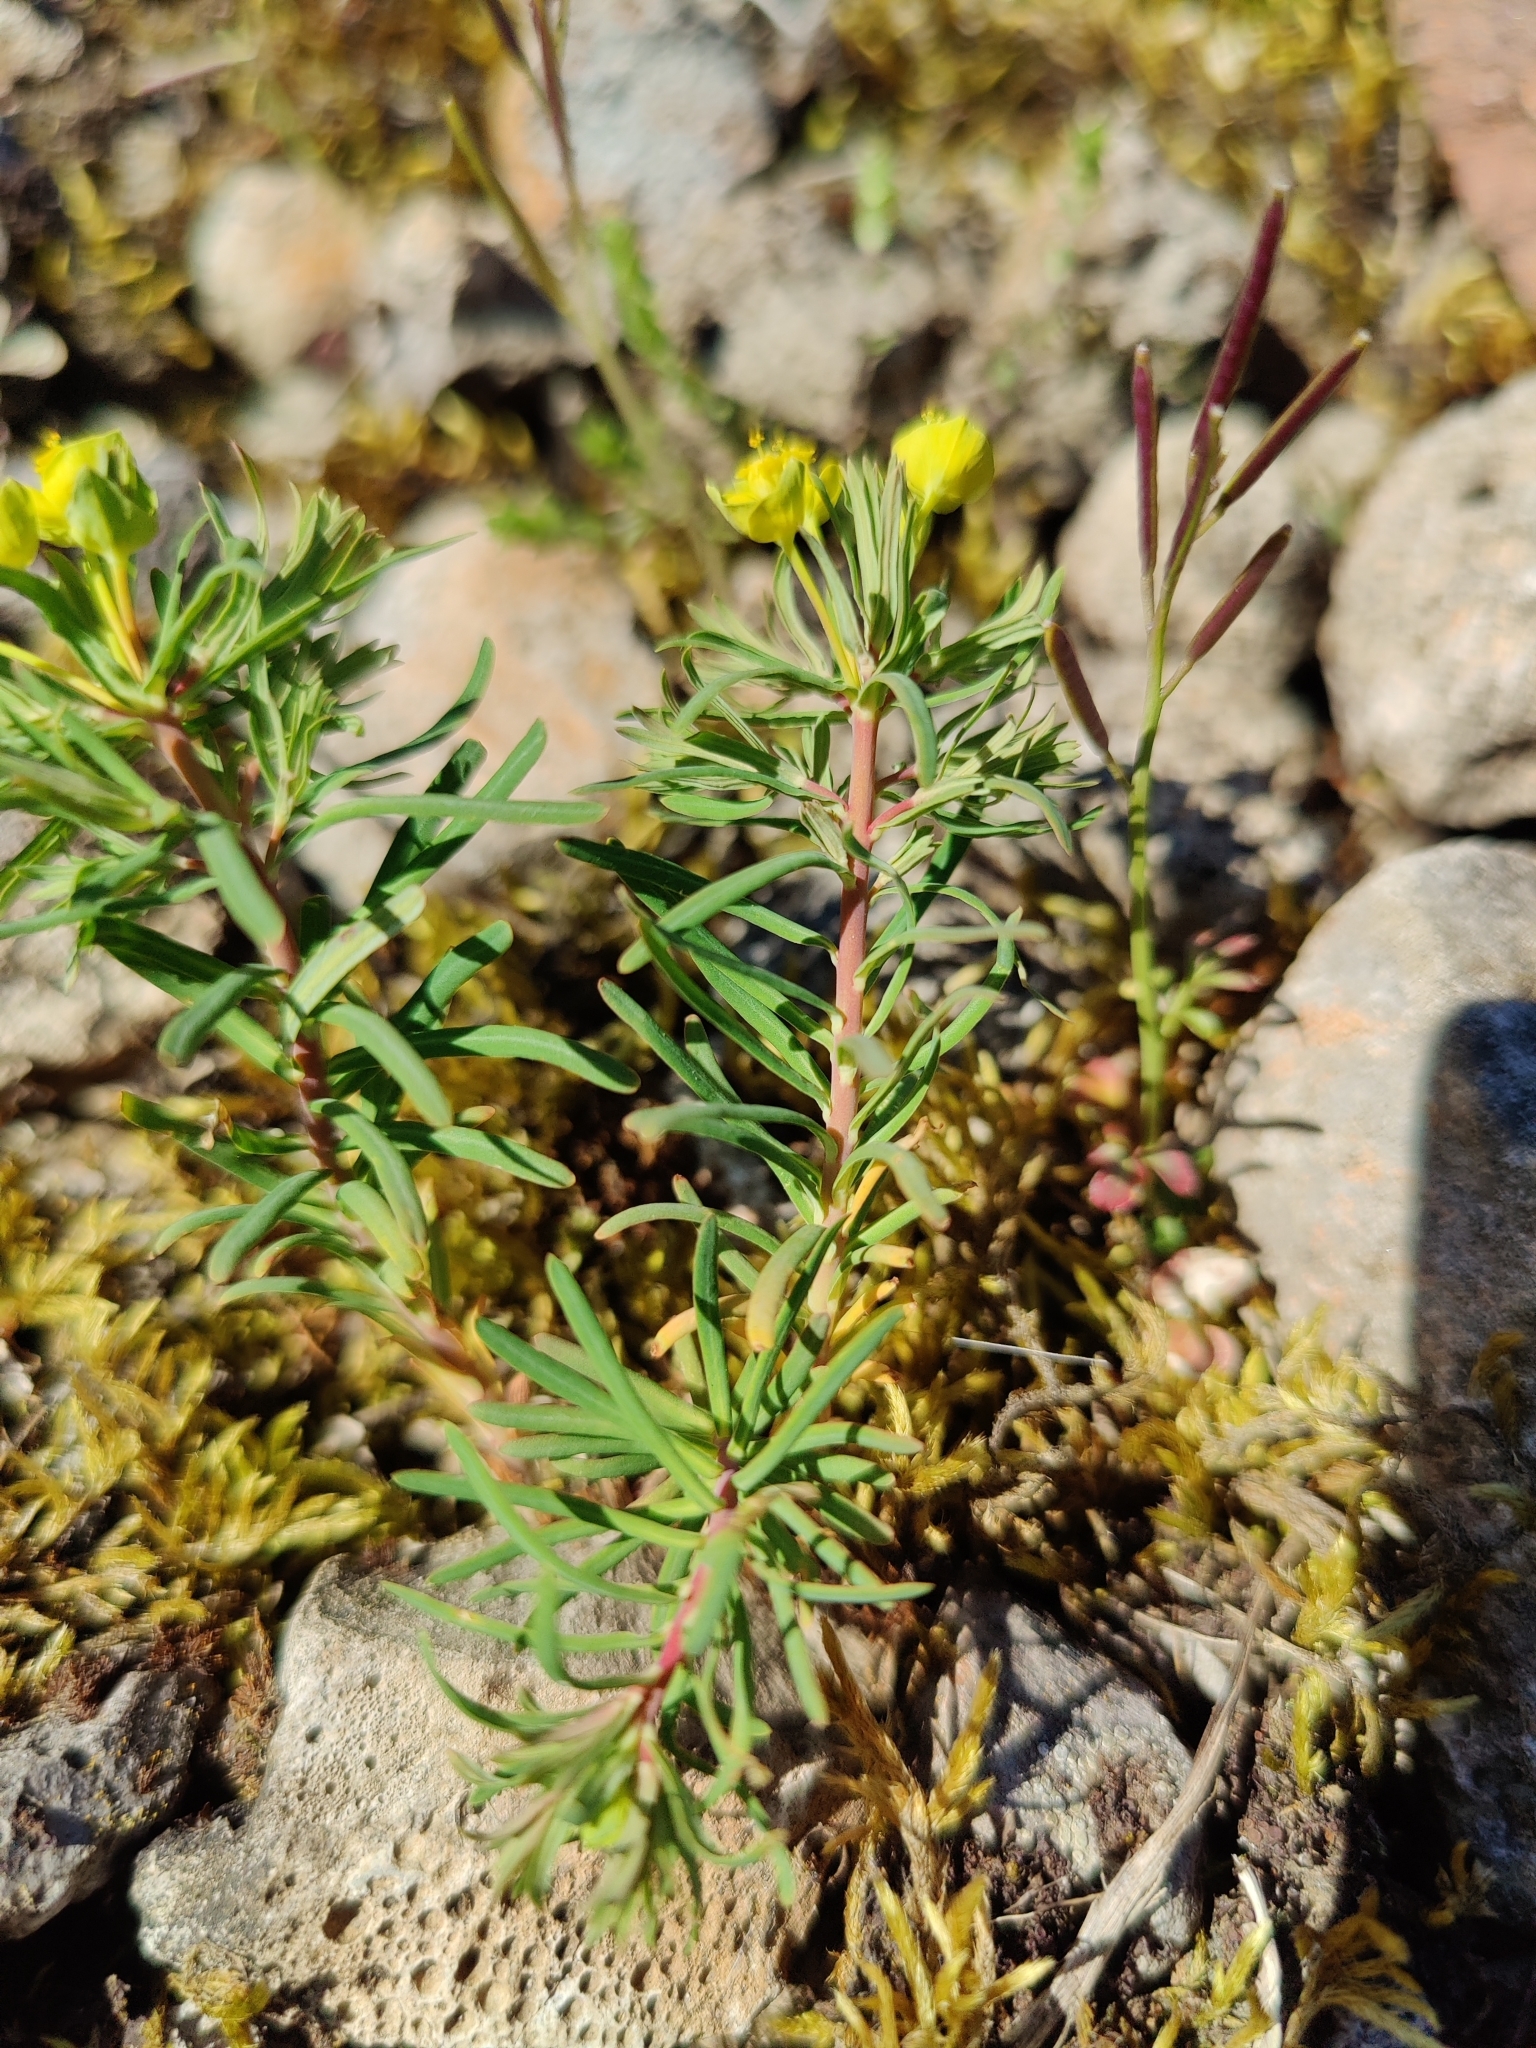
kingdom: Plantae
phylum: Tracheophyta
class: Magnoliopsida
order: Malpighiales
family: Euphorbiaceae
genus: Euphorbia
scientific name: Euphorbia cyparissias
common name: Cypress spurge
